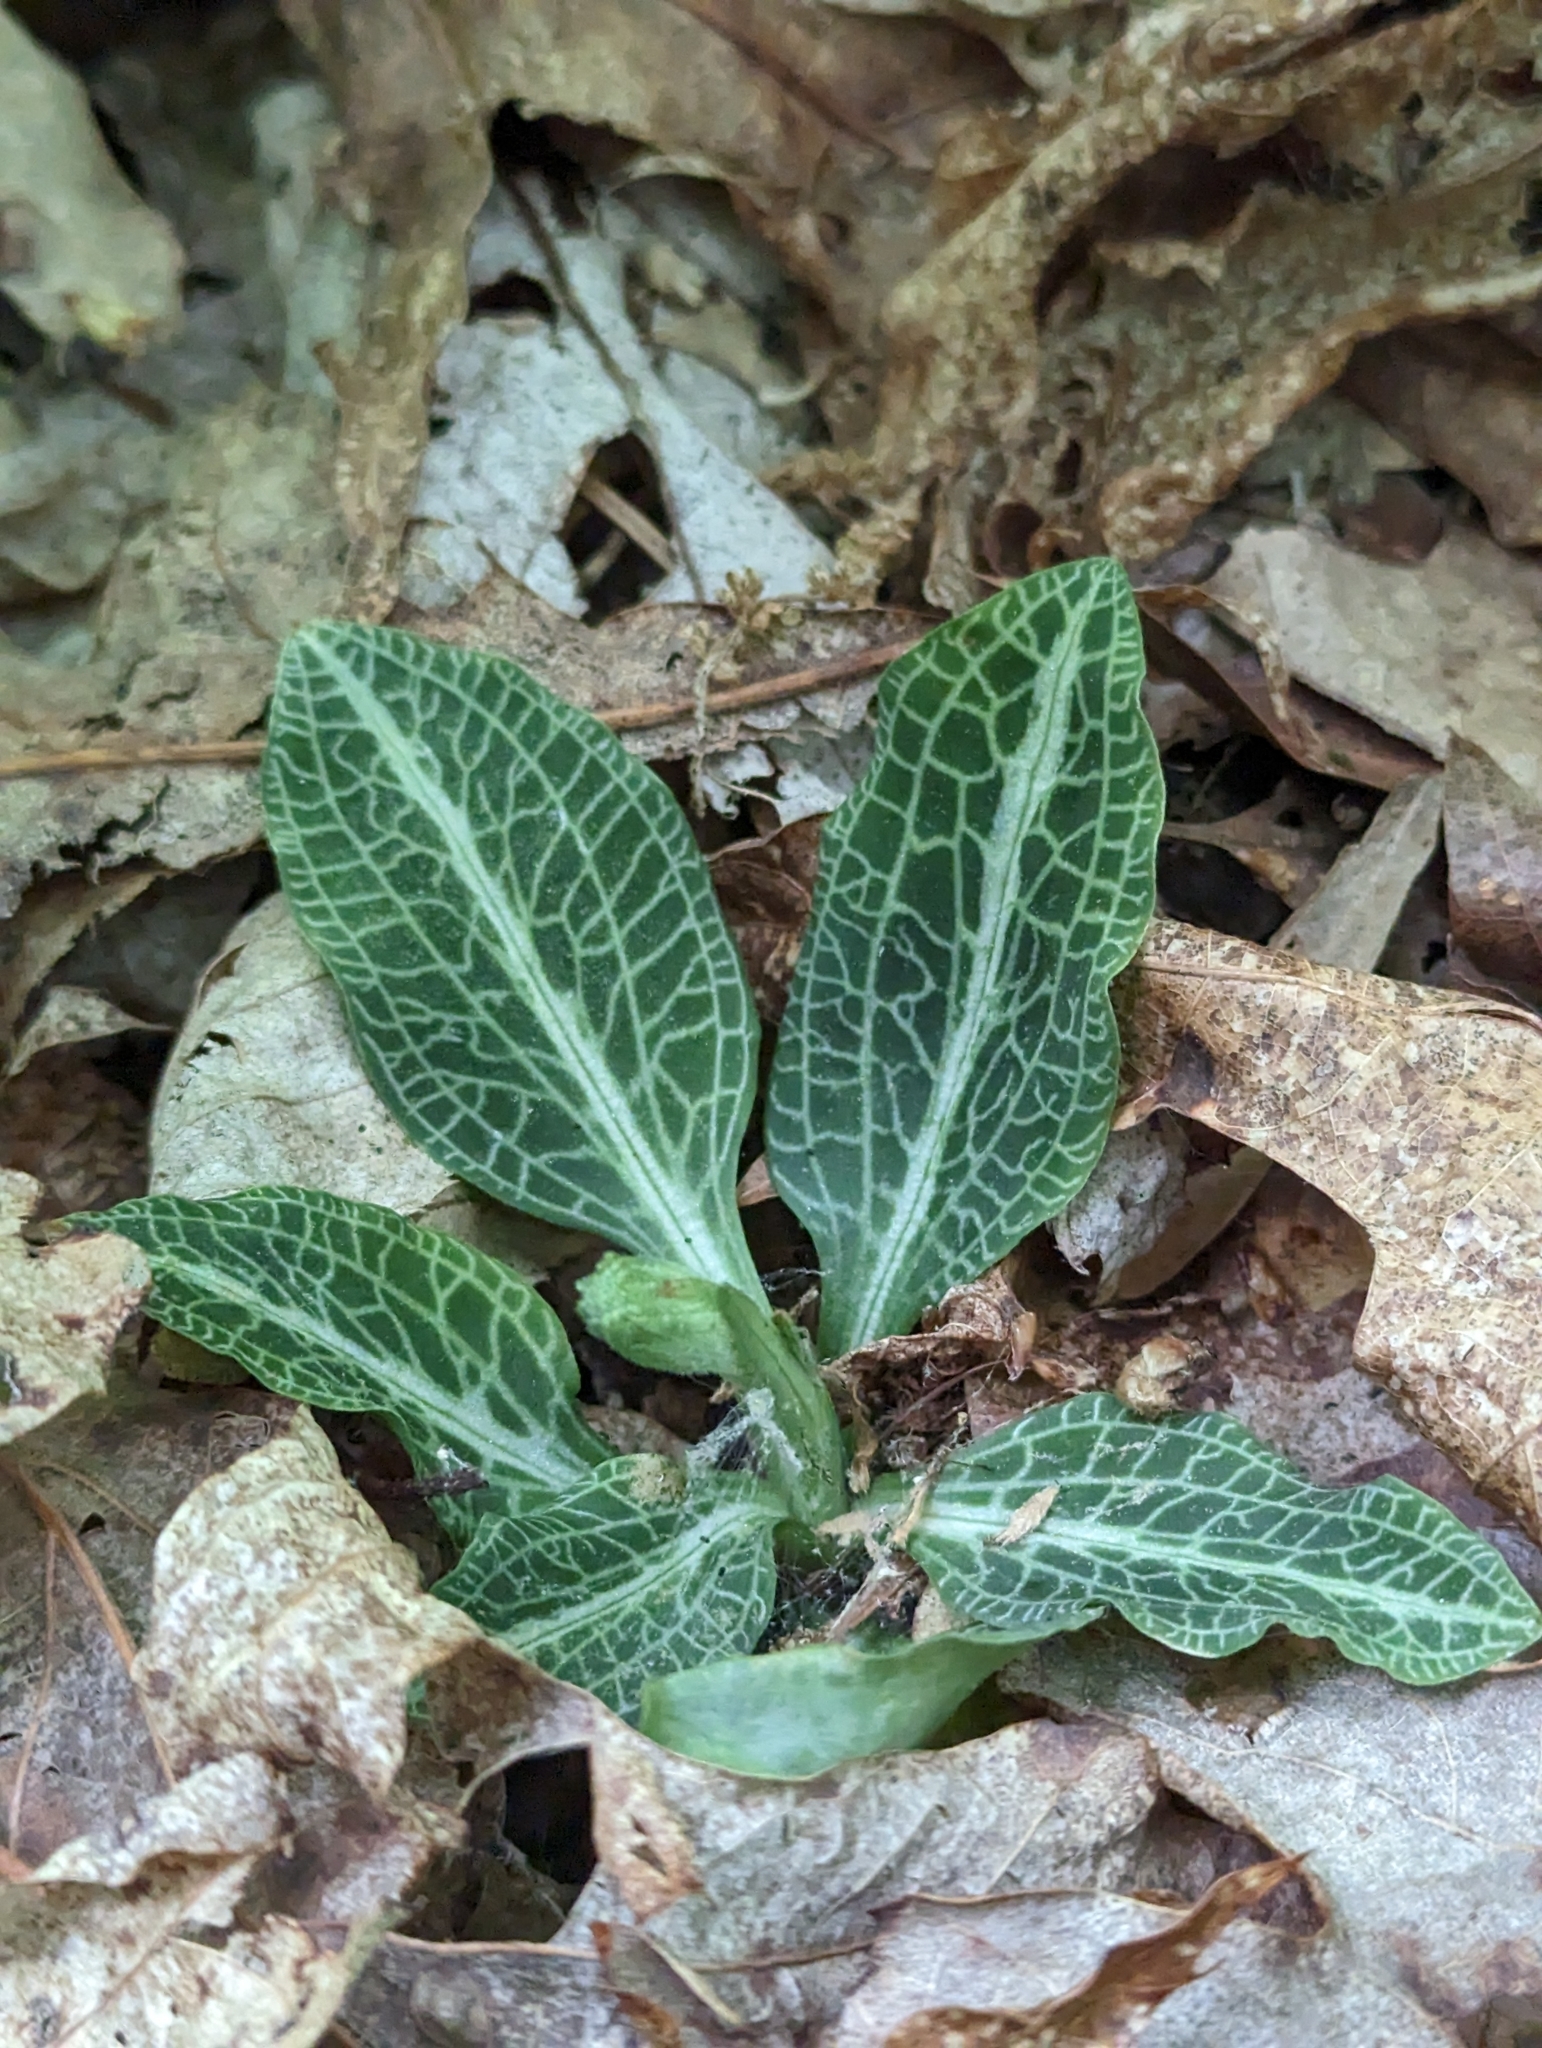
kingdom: Plantae
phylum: Tracheophyta
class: Liliopsida
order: Asparagales
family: Orchidaceae
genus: Goodyera
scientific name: Goodyera pubescens
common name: Downy rattlesnake-plantain
